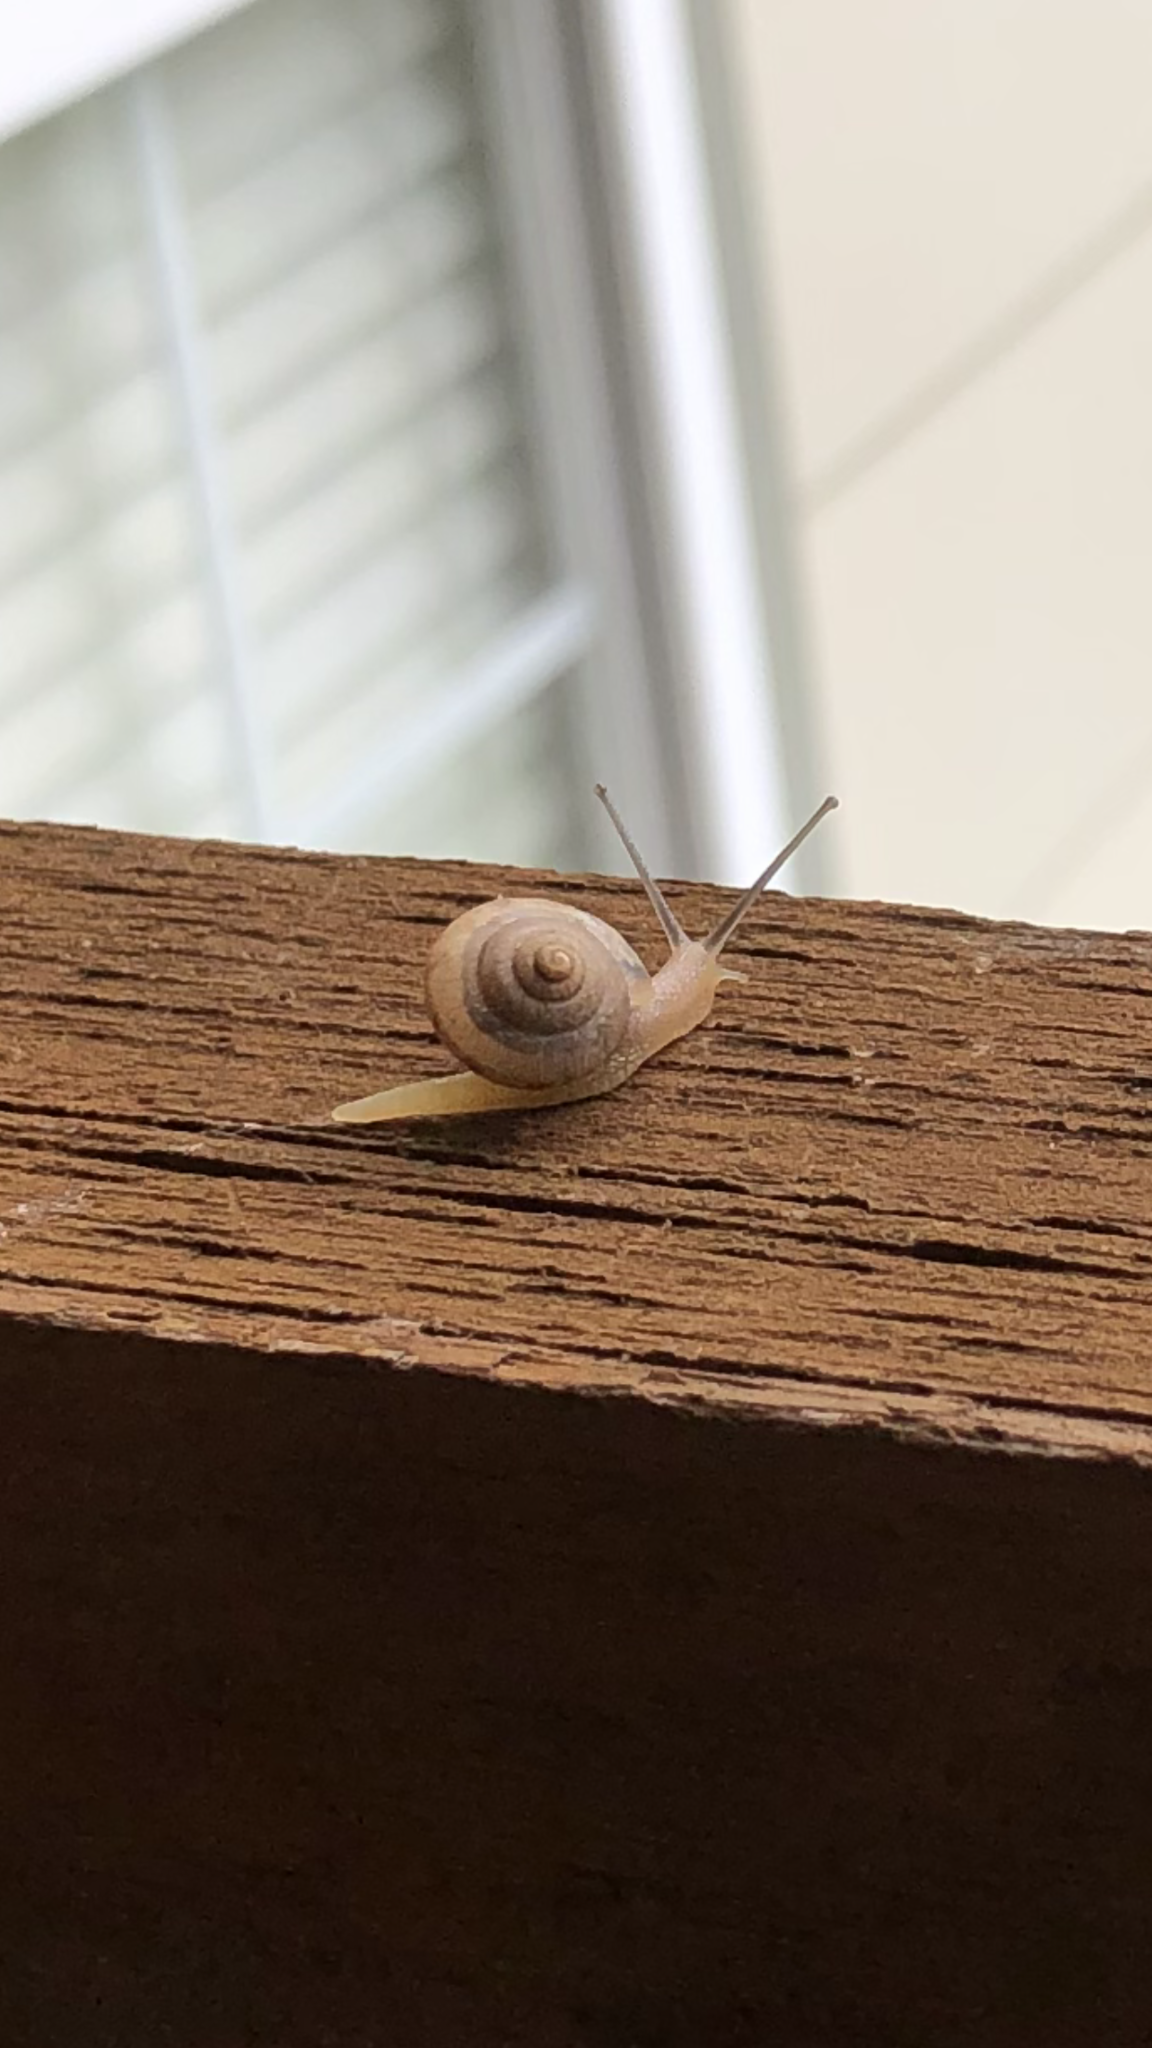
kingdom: Animalia
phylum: Mollusca
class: Gastropoda
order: Stylommatophora
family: Camaenidae
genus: Bradybaena
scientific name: Bradybaena similaris
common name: Asian trampsnail
